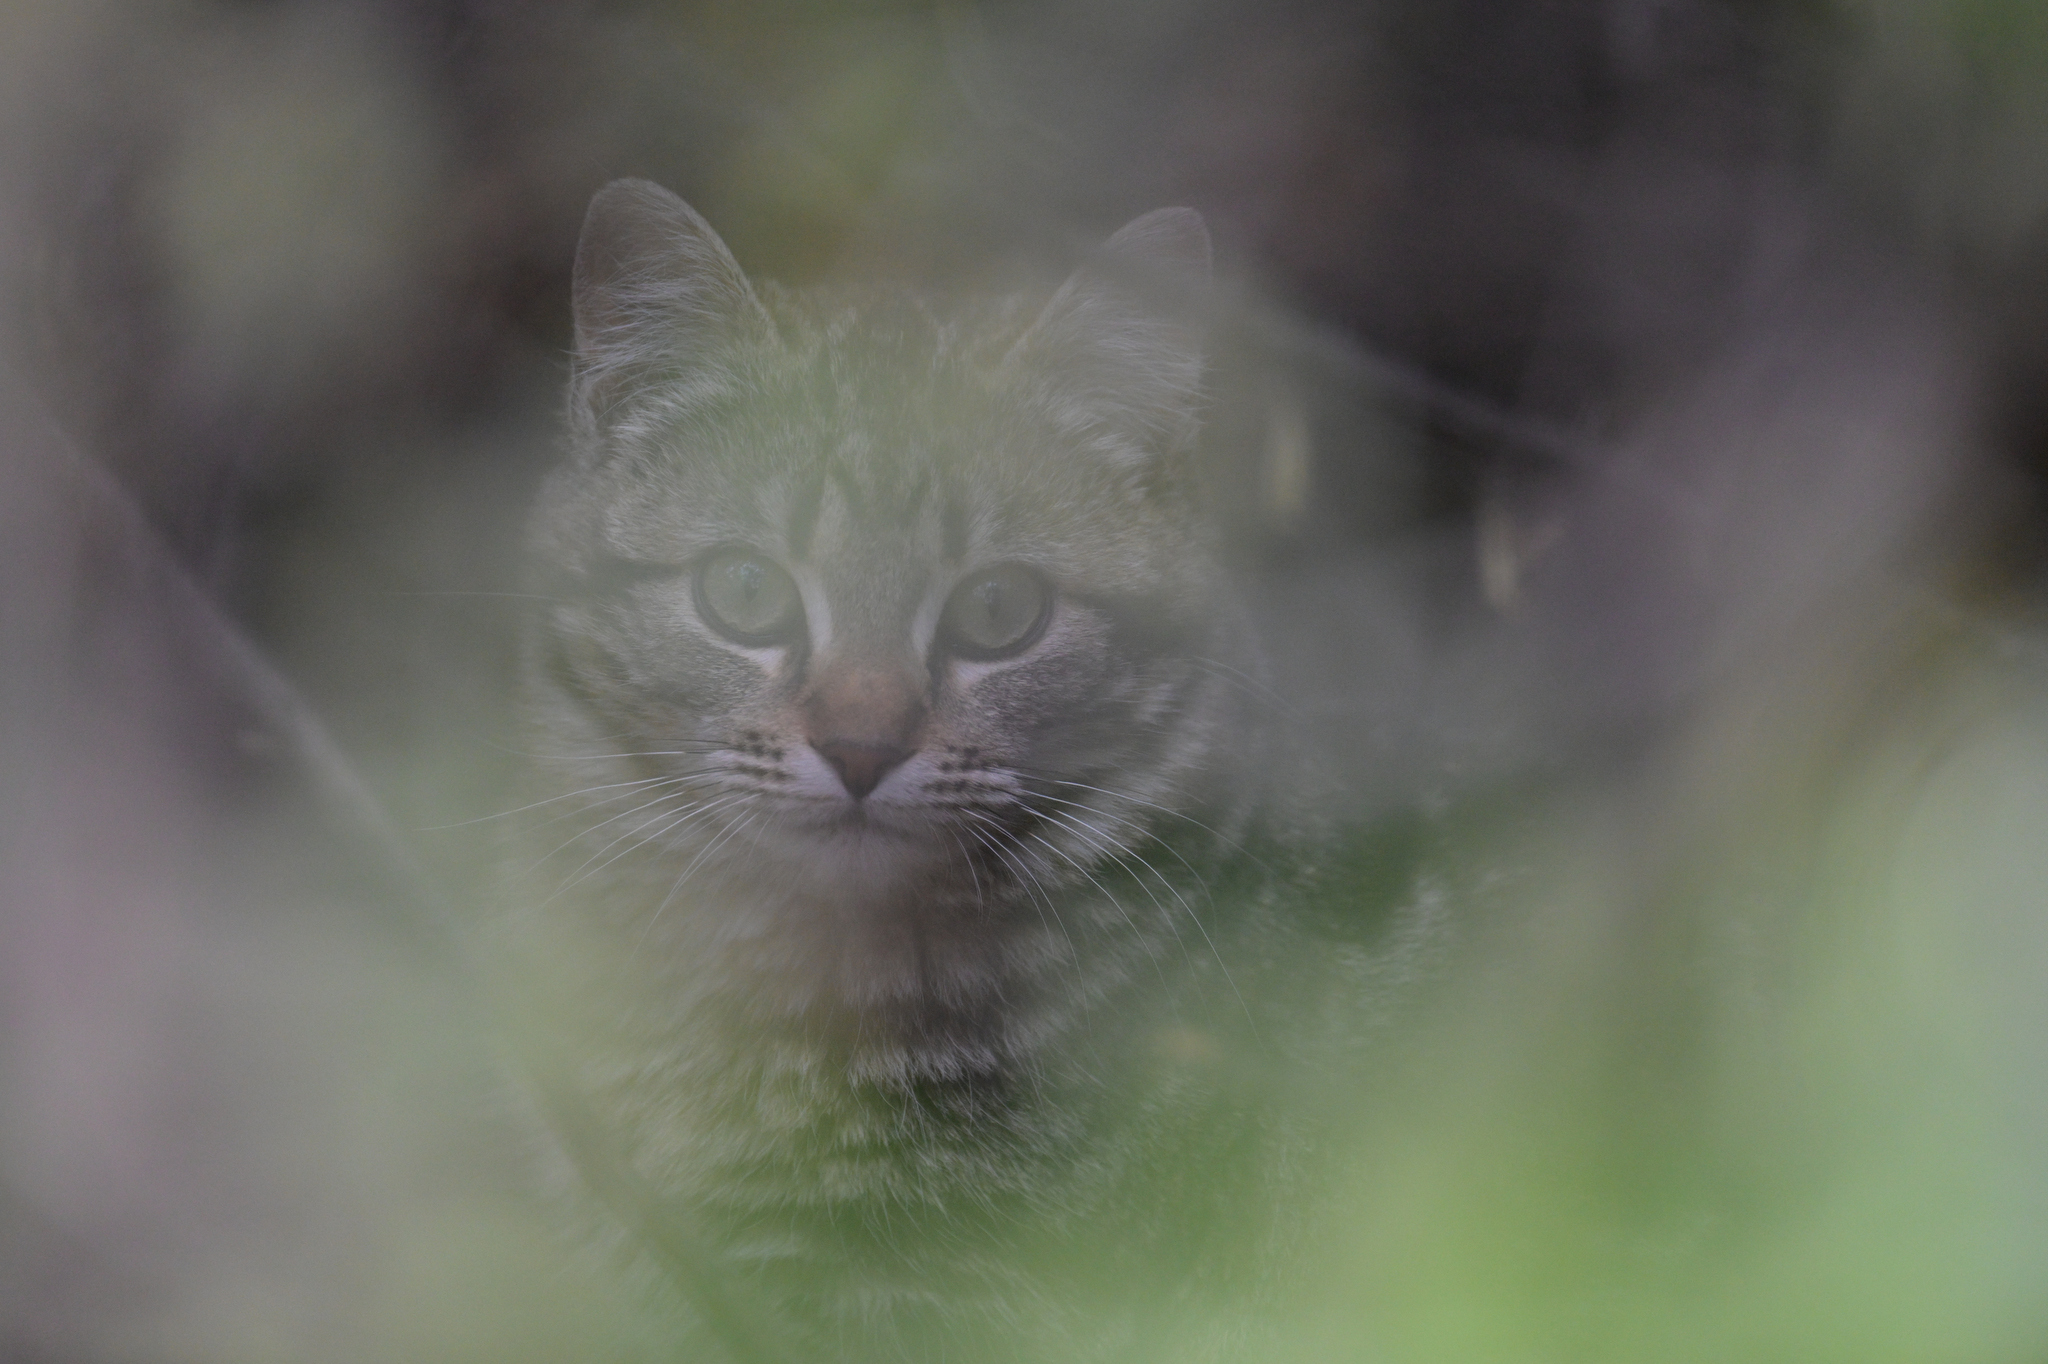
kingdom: Animalia
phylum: Chordata
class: Mammalia
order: Carnivora
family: Felidae
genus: Felis
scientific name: Felis catus
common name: Domestic cat
